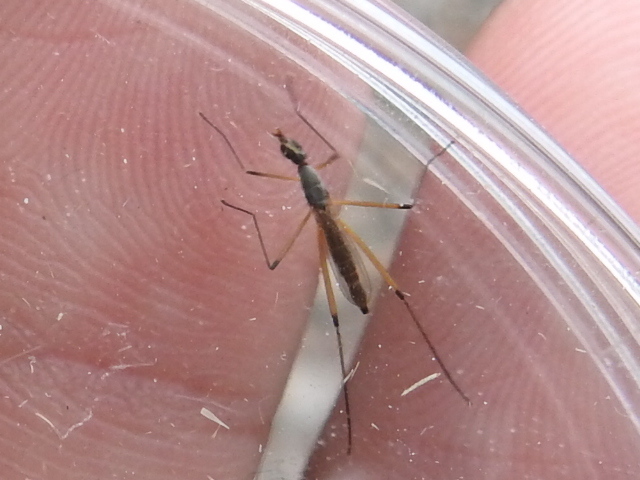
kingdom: Animalia
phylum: Arthropoda
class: Insecta
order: Diptera
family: Micropezidae
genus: Micropeza
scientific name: Micropeza bisetosa
